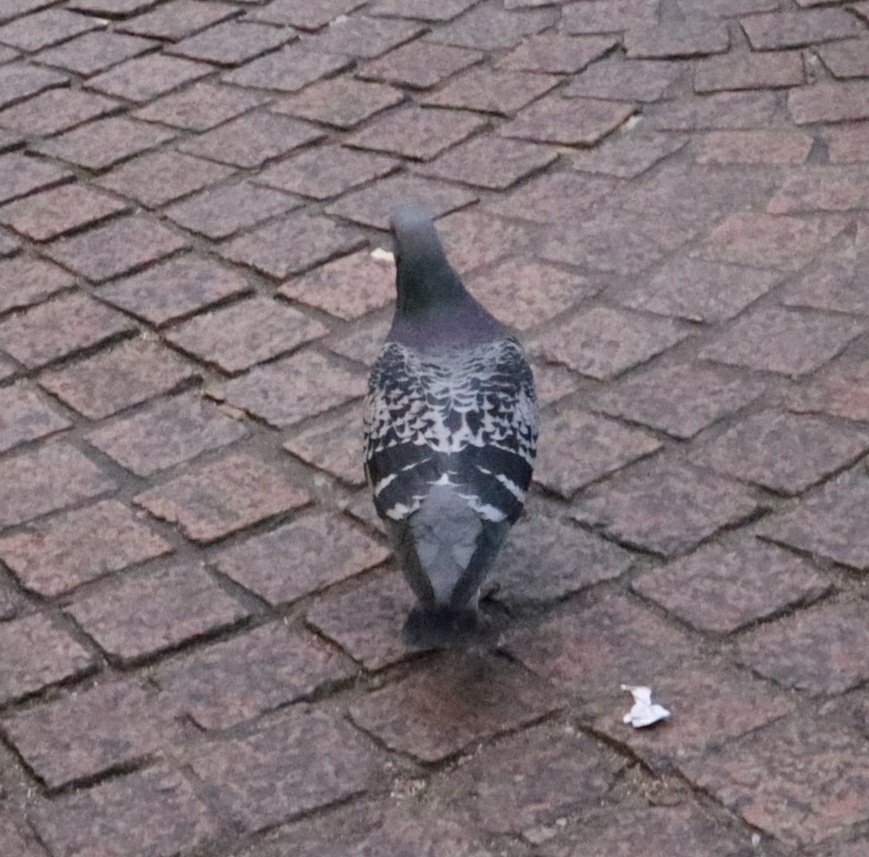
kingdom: Animalia
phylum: Chordata
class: Aves
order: Columbiformes
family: Columbidae
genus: Columba
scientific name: Columba livia
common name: Rock pigeon
